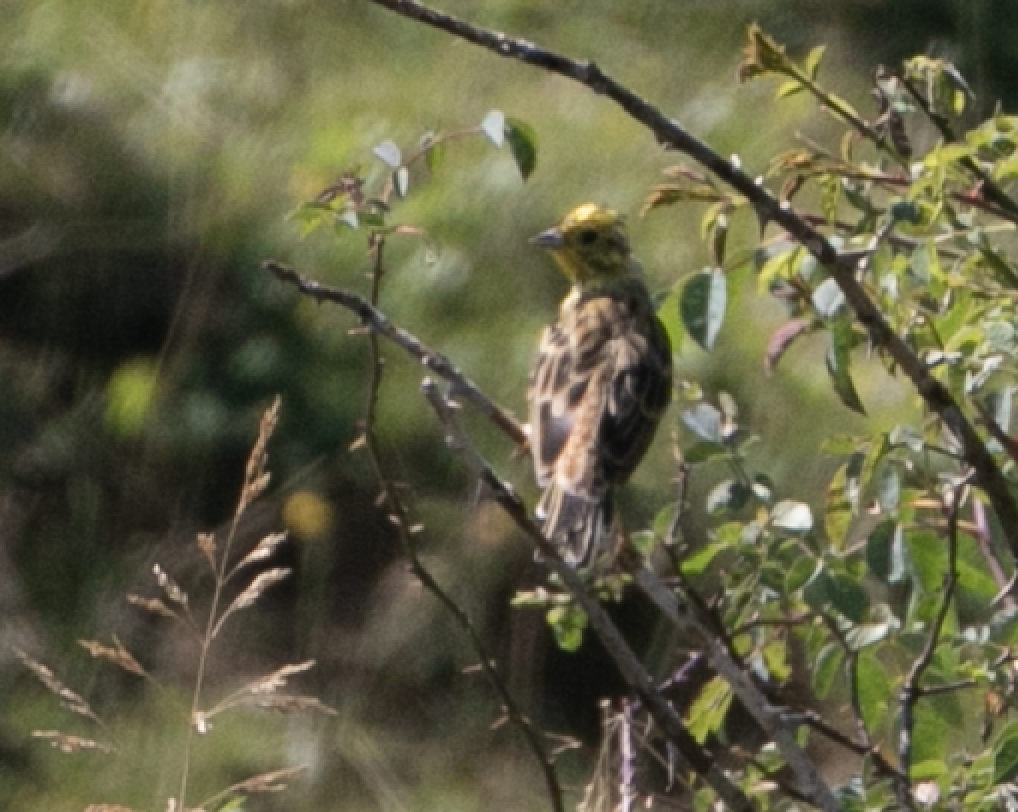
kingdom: Animalia
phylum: Chordata
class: Aves
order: Passeriformes
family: Emberizidae
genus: Emberiza
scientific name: Emberiza citrinella
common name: Yellowhammer
